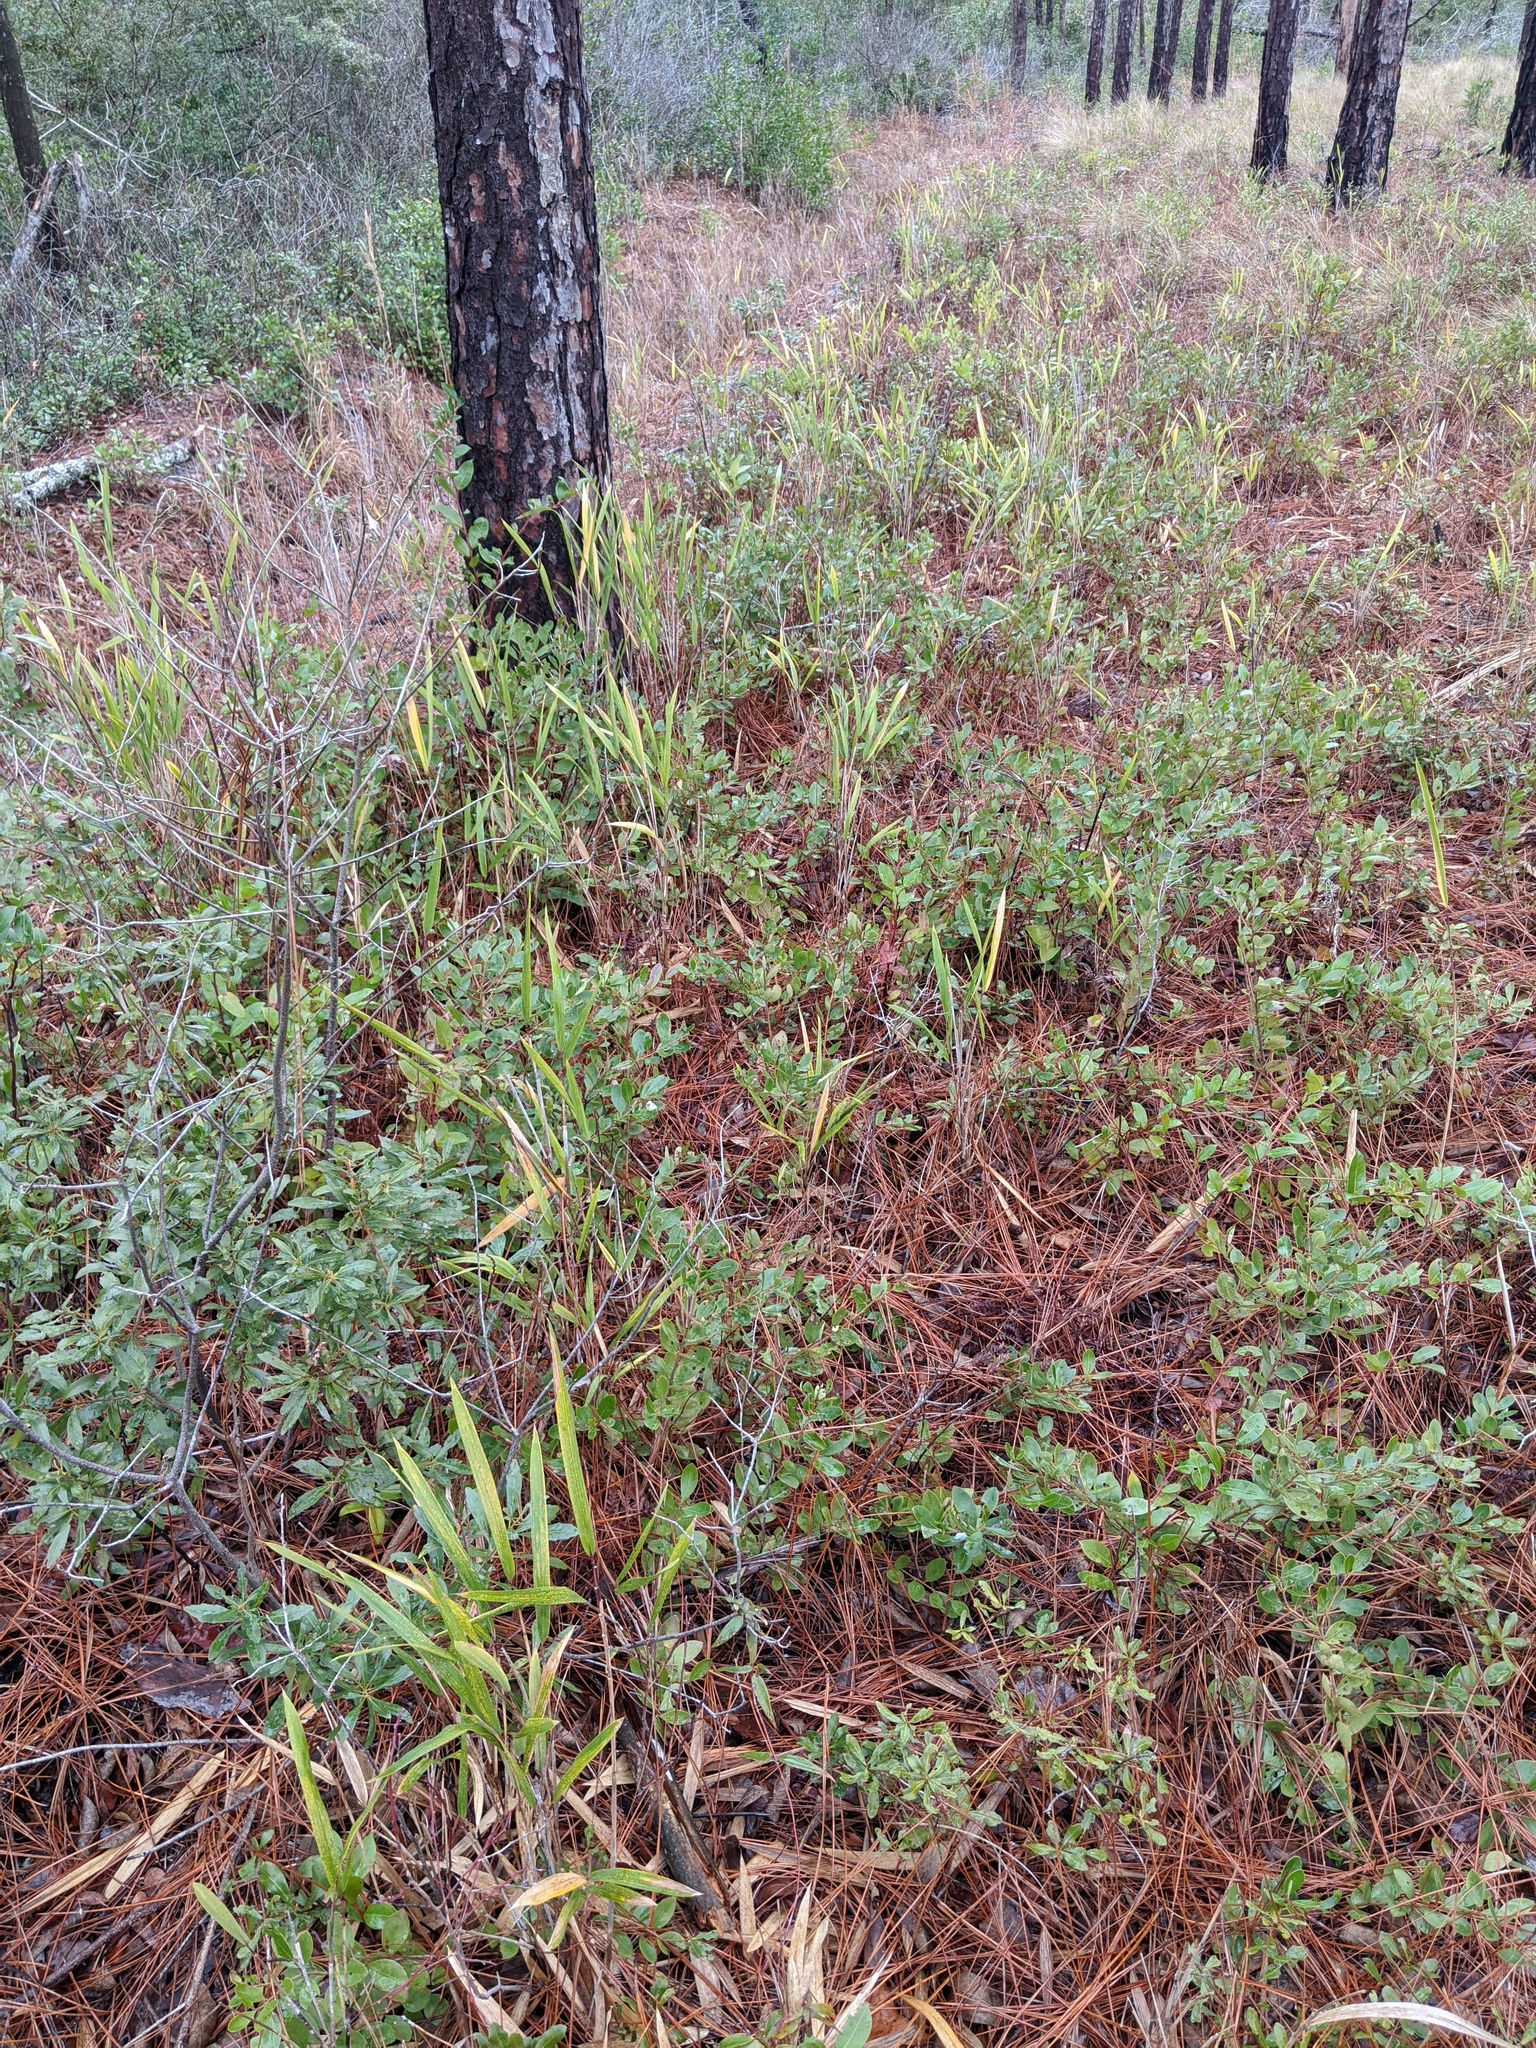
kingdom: Plantae
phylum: Tracheophyta
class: Liliopsida
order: Poales
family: Poaceae
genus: Arundinaria
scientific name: Arundinaria tecta
